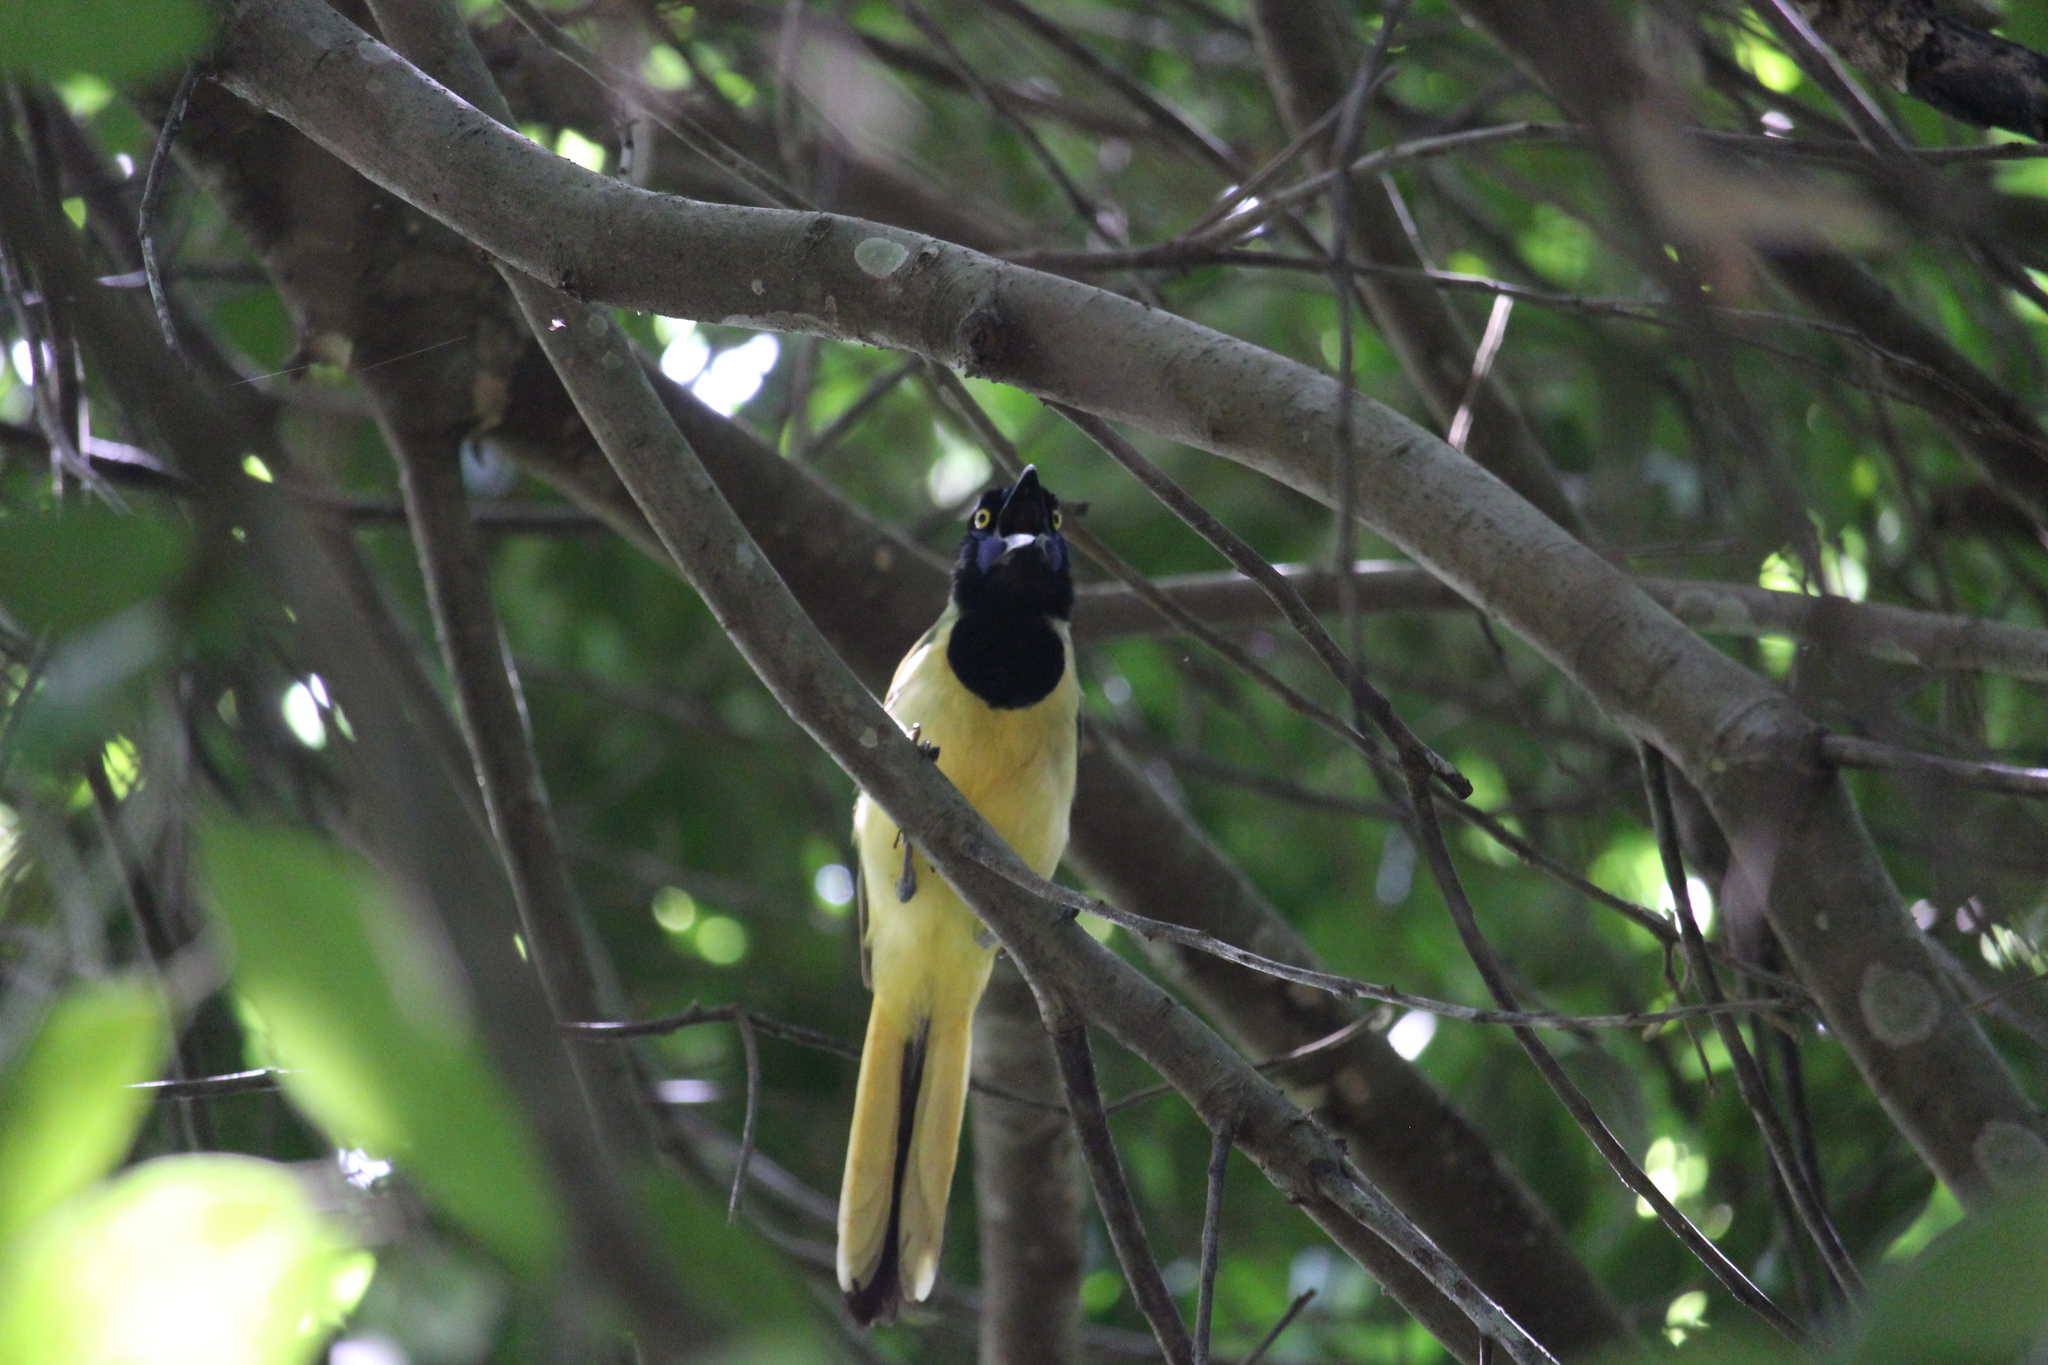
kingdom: Animalia
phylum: Chordata
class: Aves
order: Passeriformes
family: Corvidae
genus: Cyanocorax
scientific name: Cyanocorax yncas
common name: Green jay
